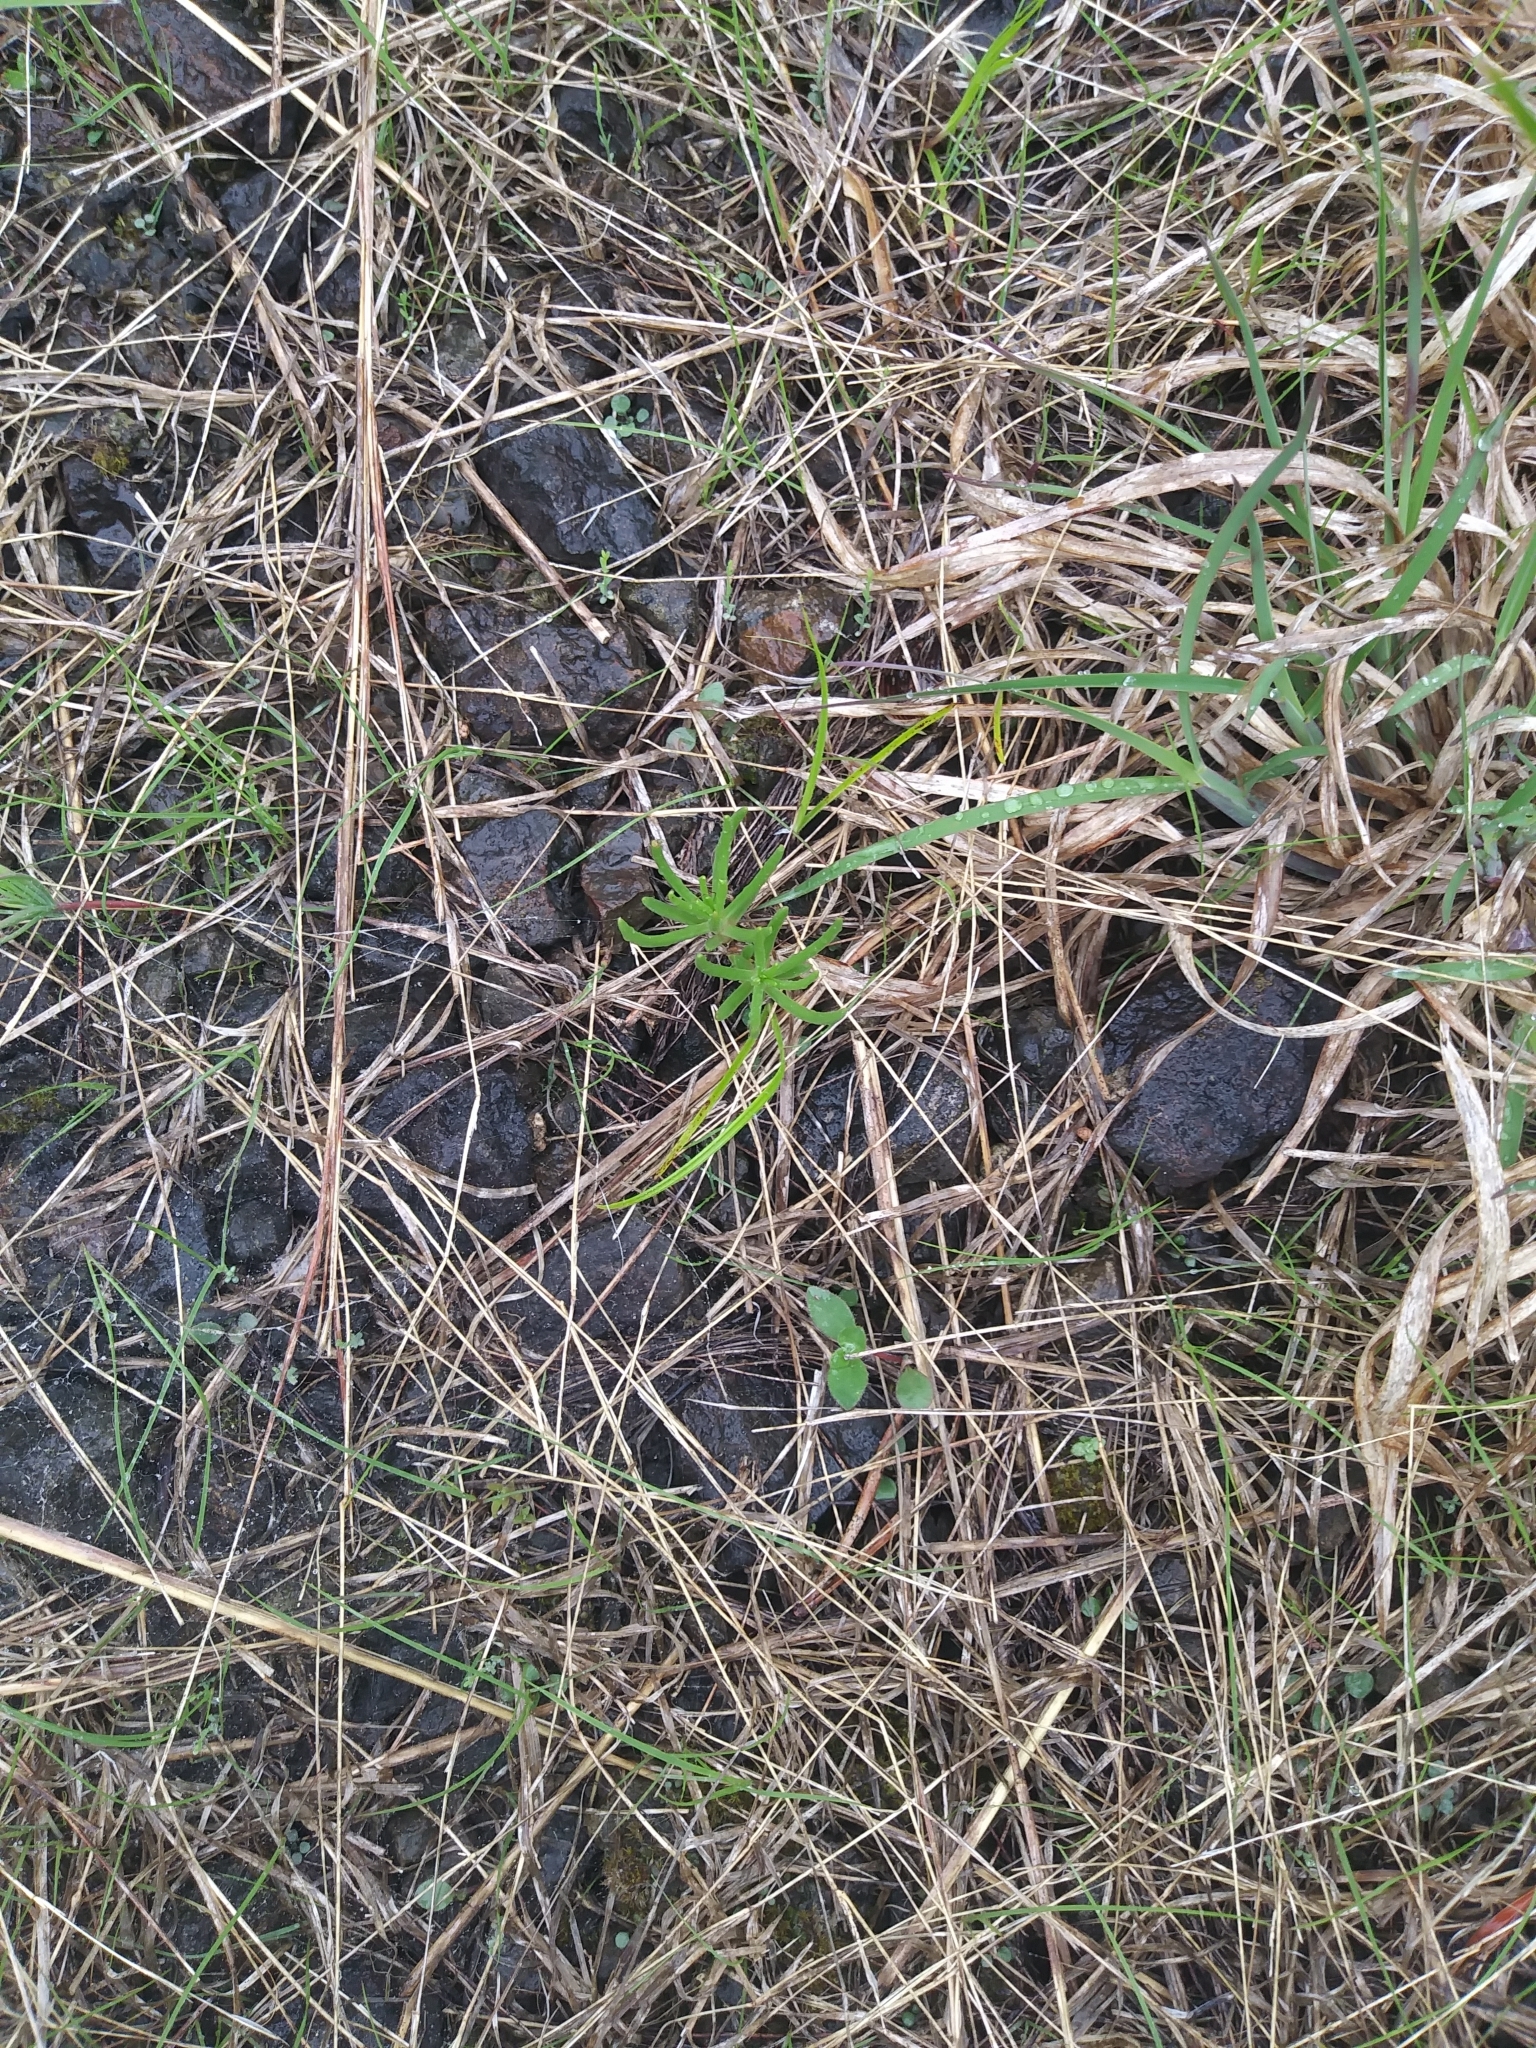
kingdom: Plantae
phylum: Tracheophyta
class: Magnoliopsida
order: Caryophyllales
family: Montiaceae
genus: Phemeranthus
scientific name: Phemeranthus teretifolius
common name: Quill fameflower
